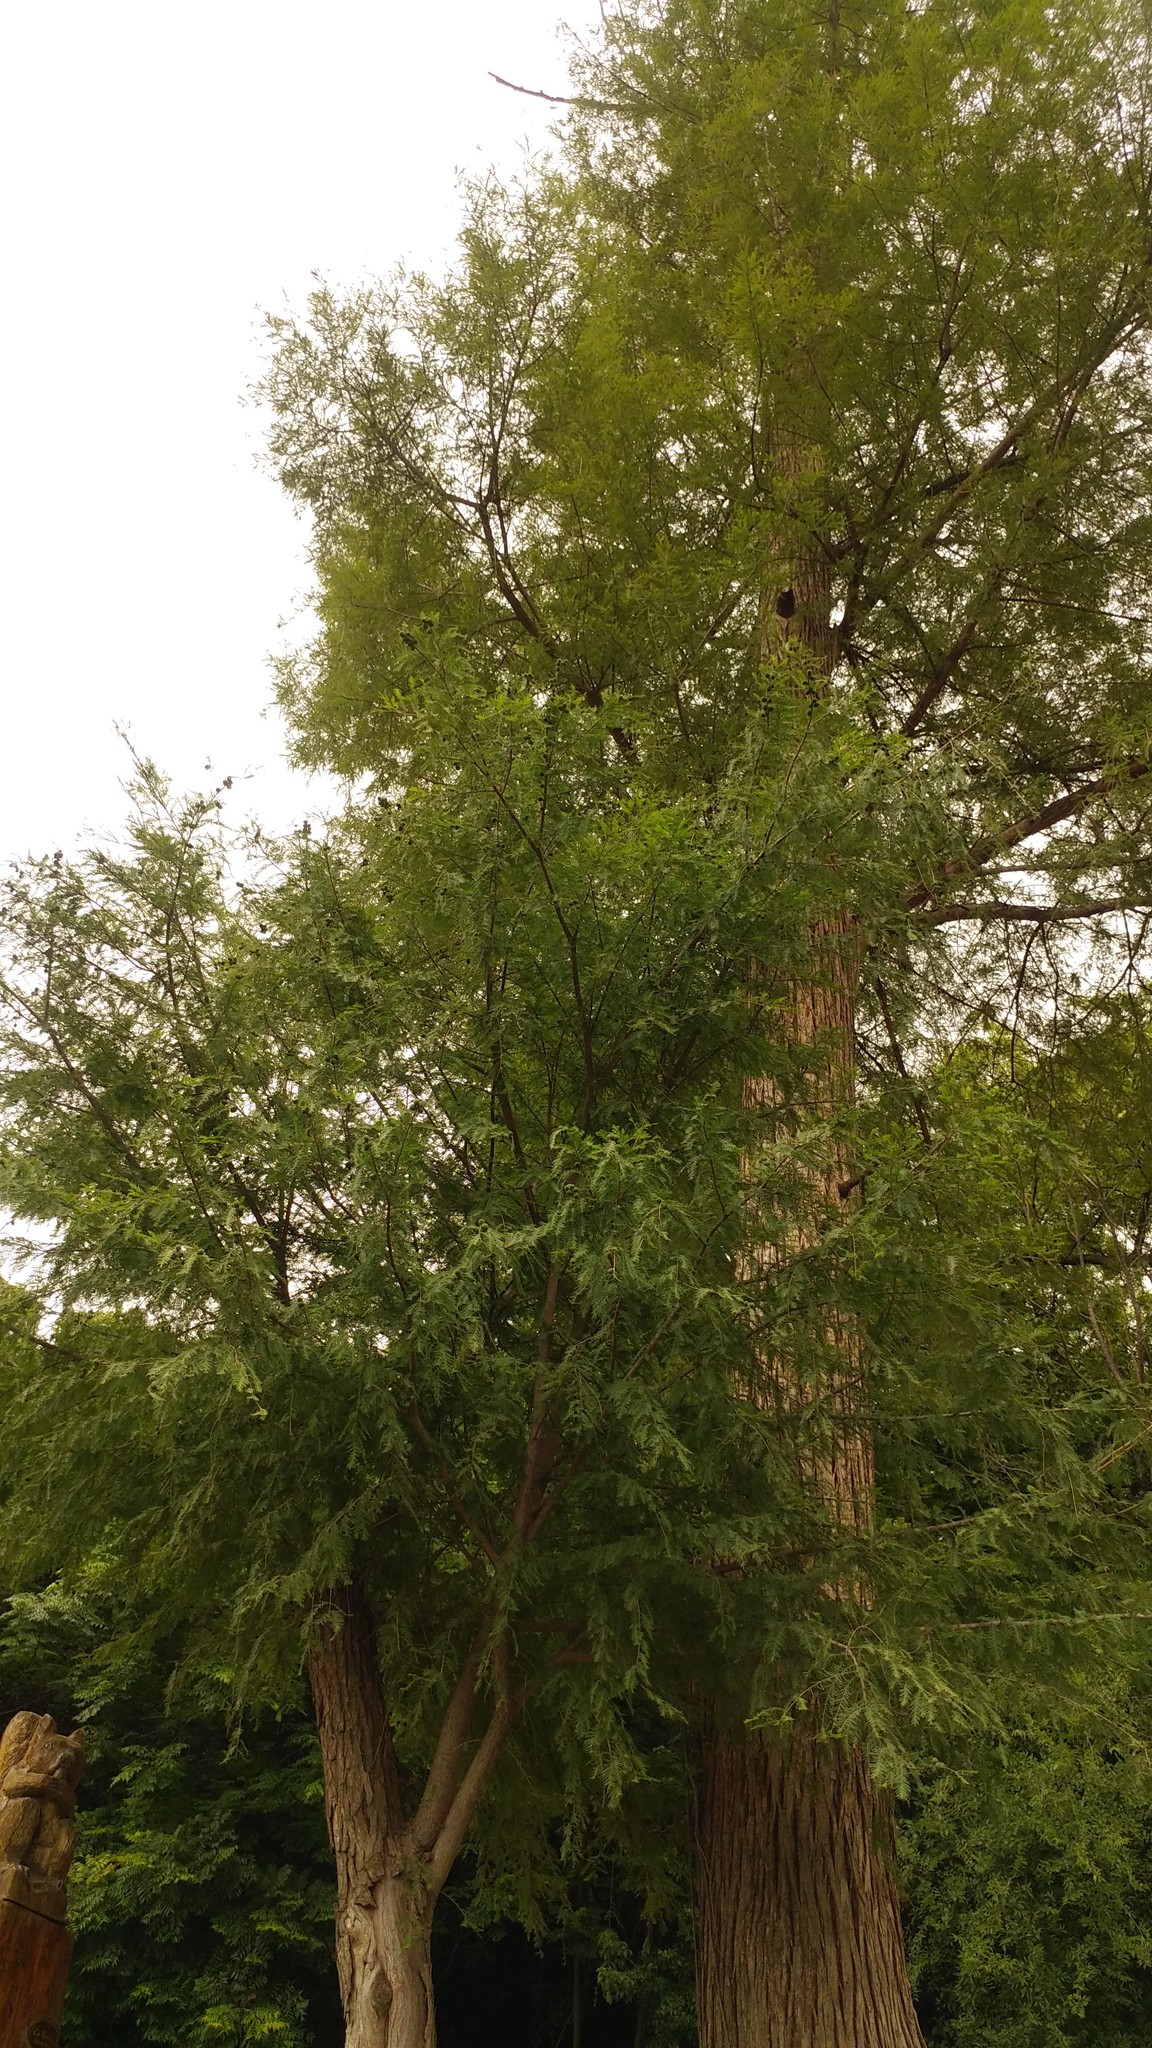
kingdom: Plantae
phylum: Tracheophyta
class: Pinopsida
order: Pinales
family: Cupressaceae
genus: Taxodium
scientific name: Taxodium mucronatum
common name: Montezume bald cypress
